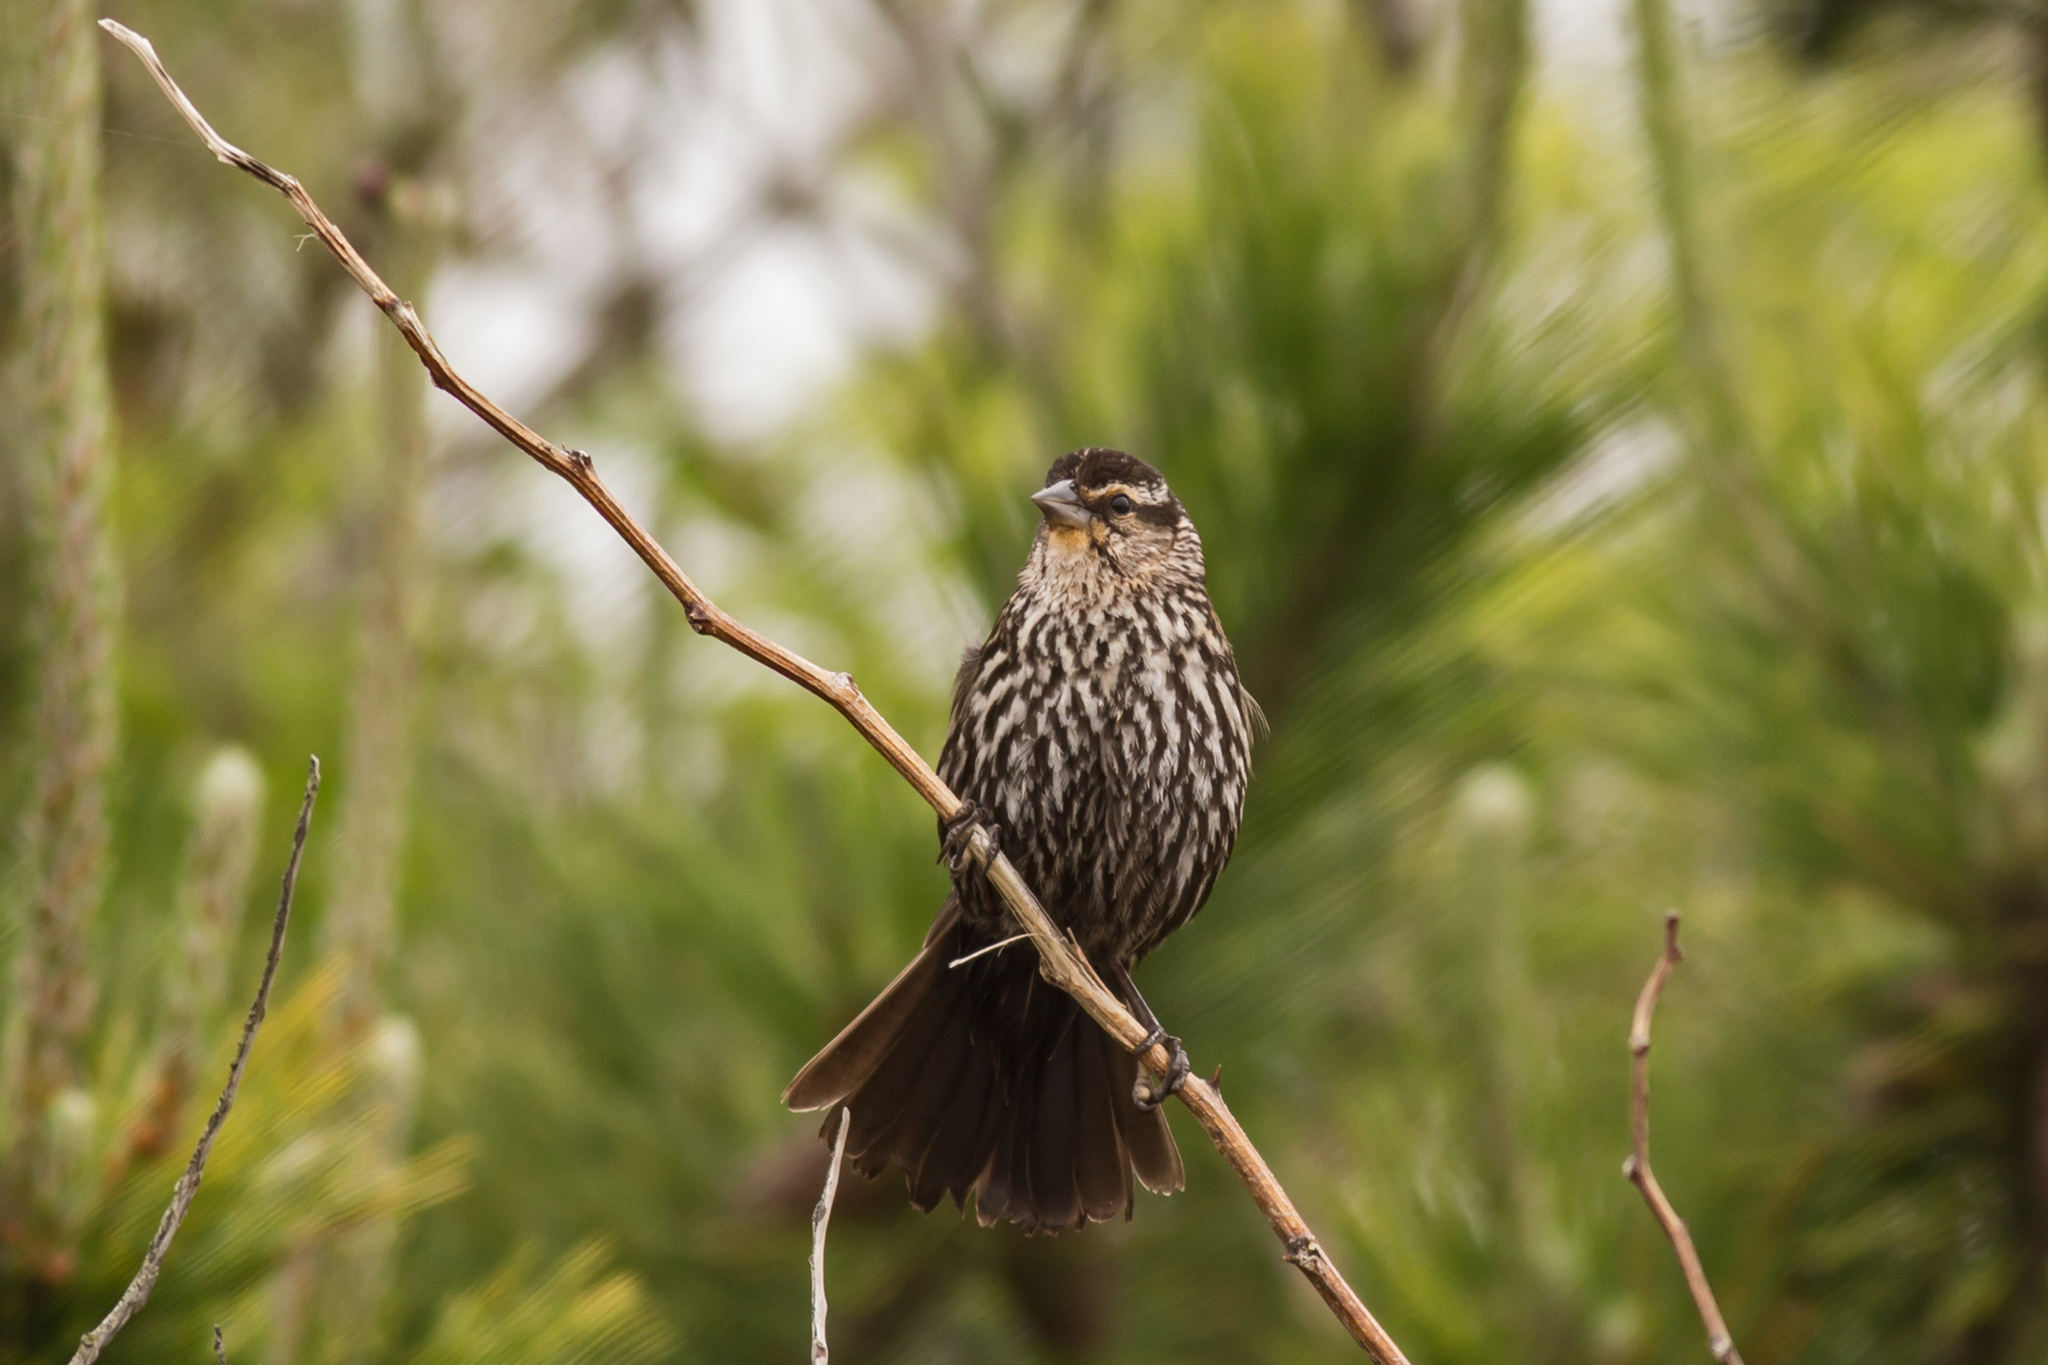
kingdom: Animalia
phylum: Chordata
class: Aves
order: Passeriformes
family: Icteridae
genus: Agelaius
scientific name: Agelaius phoeniceus
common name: Red-winged blackbird
